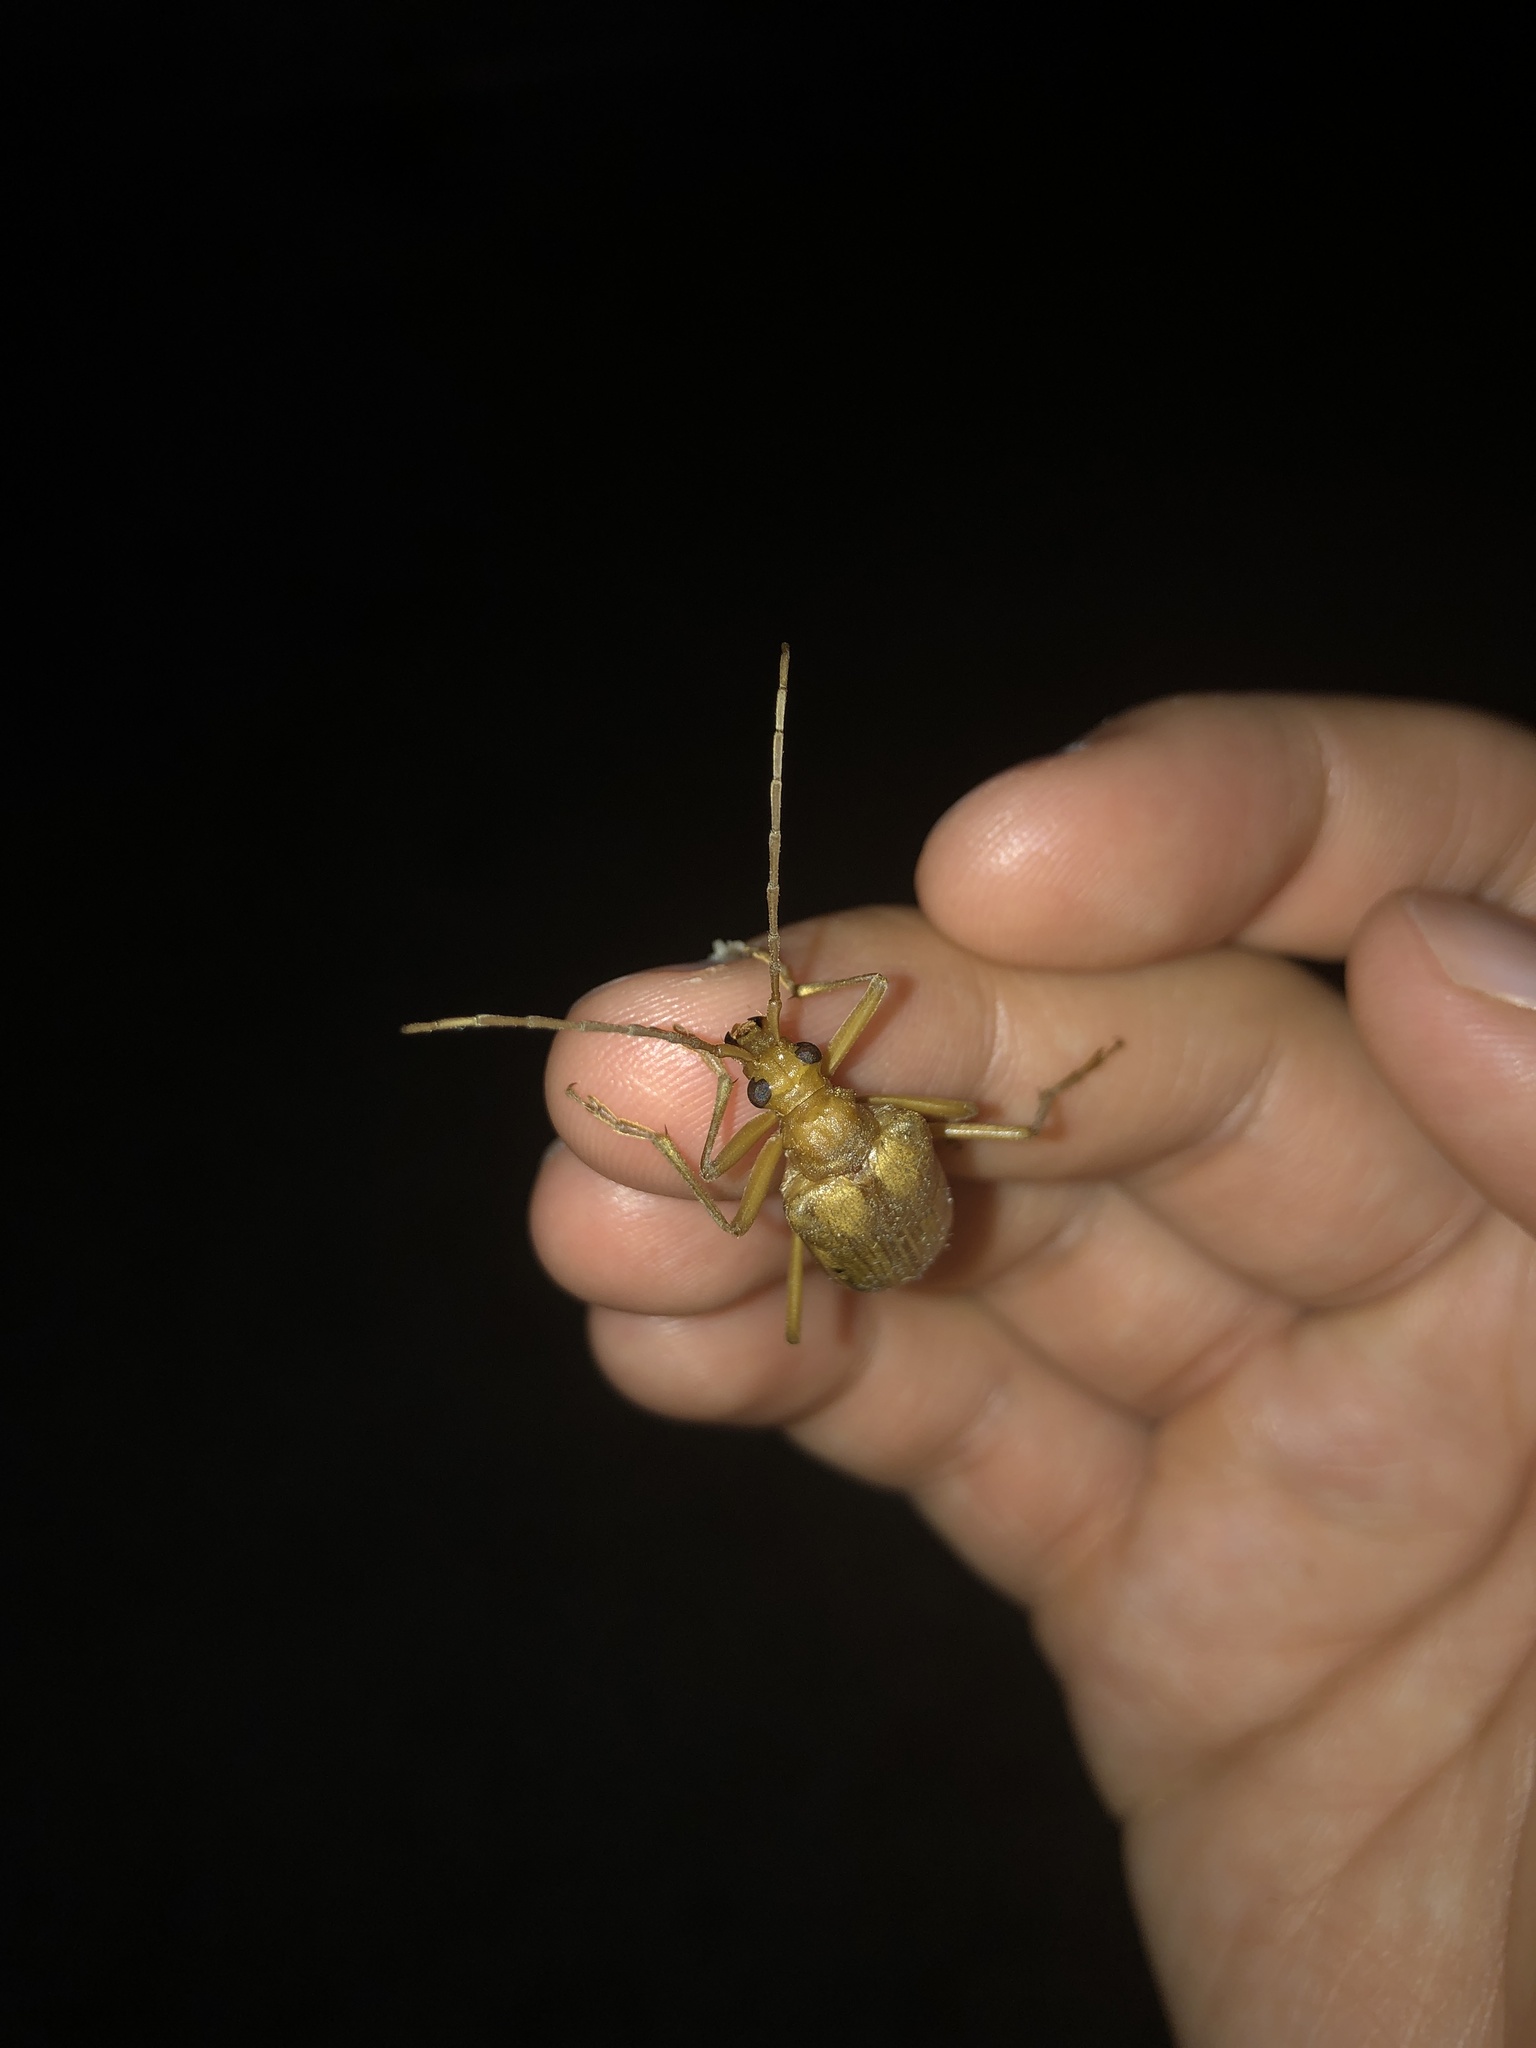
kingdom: Animalia
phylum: Arthropoda
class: Insecta
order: Coleoptera
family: Cerambycidae
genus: Centrodera
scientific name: Centrodera spurca
